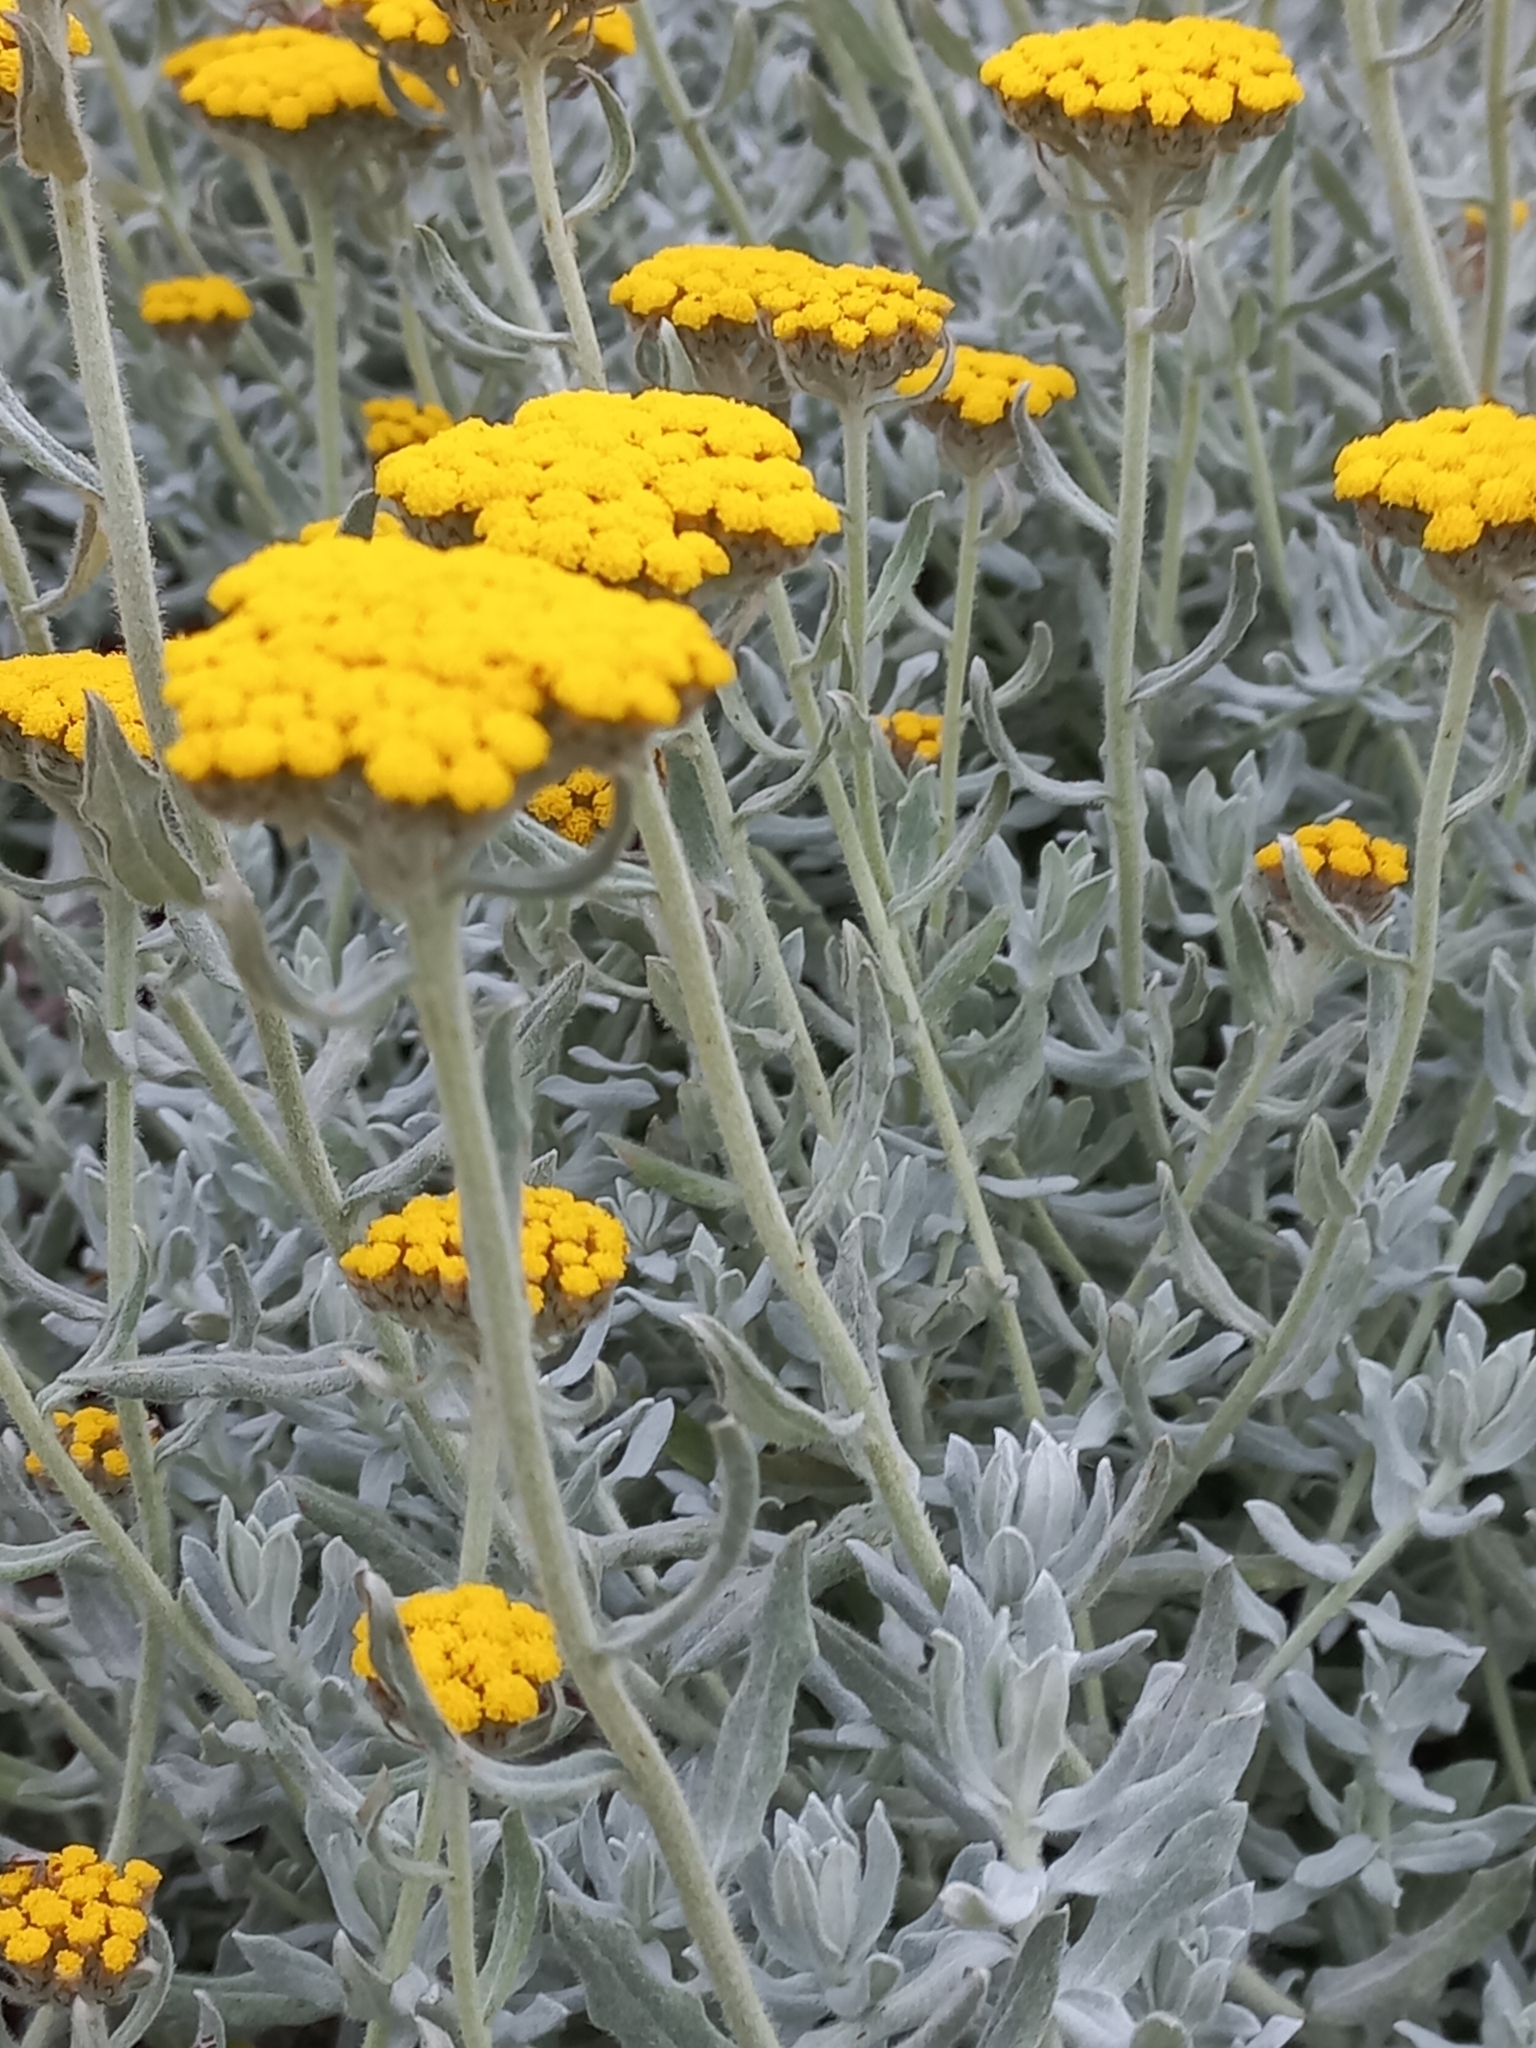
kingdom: Plantae
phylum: Tracheophyta
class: Magnoliopsida
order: Asterales
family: Asteraceae
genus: Helichrysum
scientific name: Helichrysum dasyanthum
